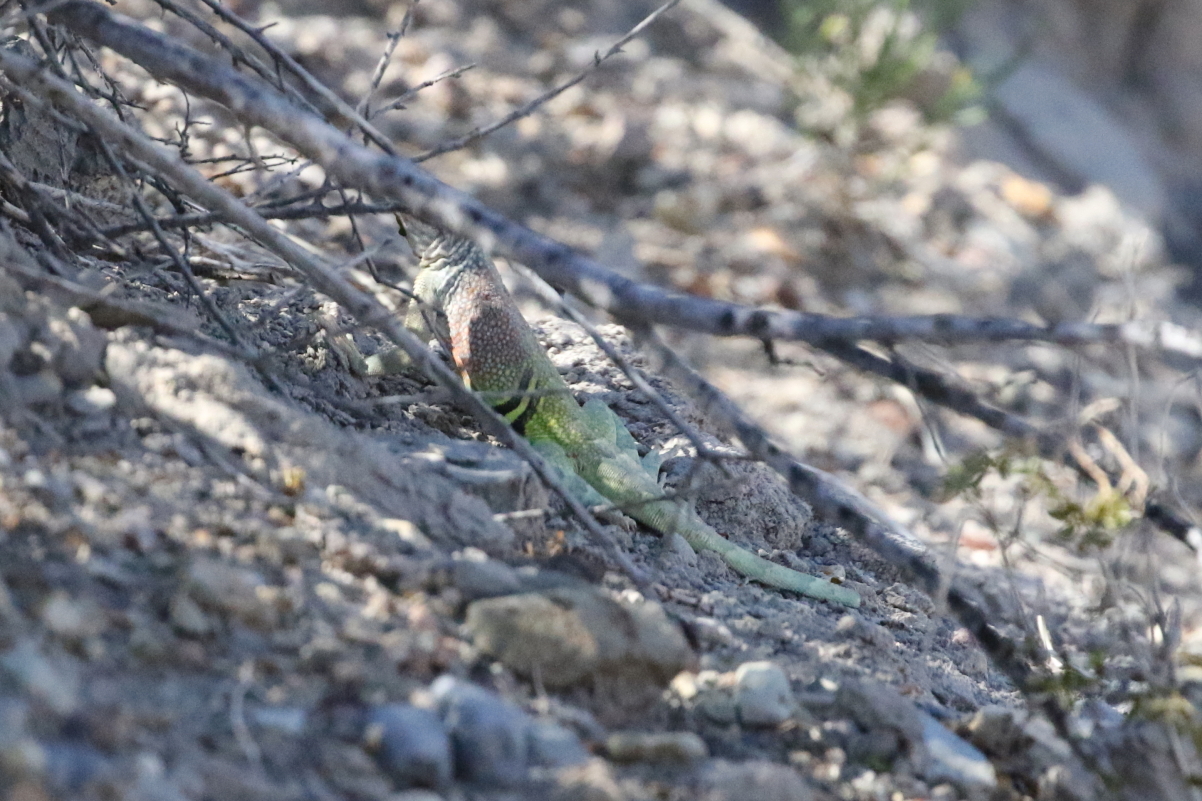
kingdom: Animalia
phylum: Chordata
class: Squamata
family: Phrynosomatidae
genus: Cophosaurus
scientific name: Cophosaurus texanus
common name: Greater earless lizard
